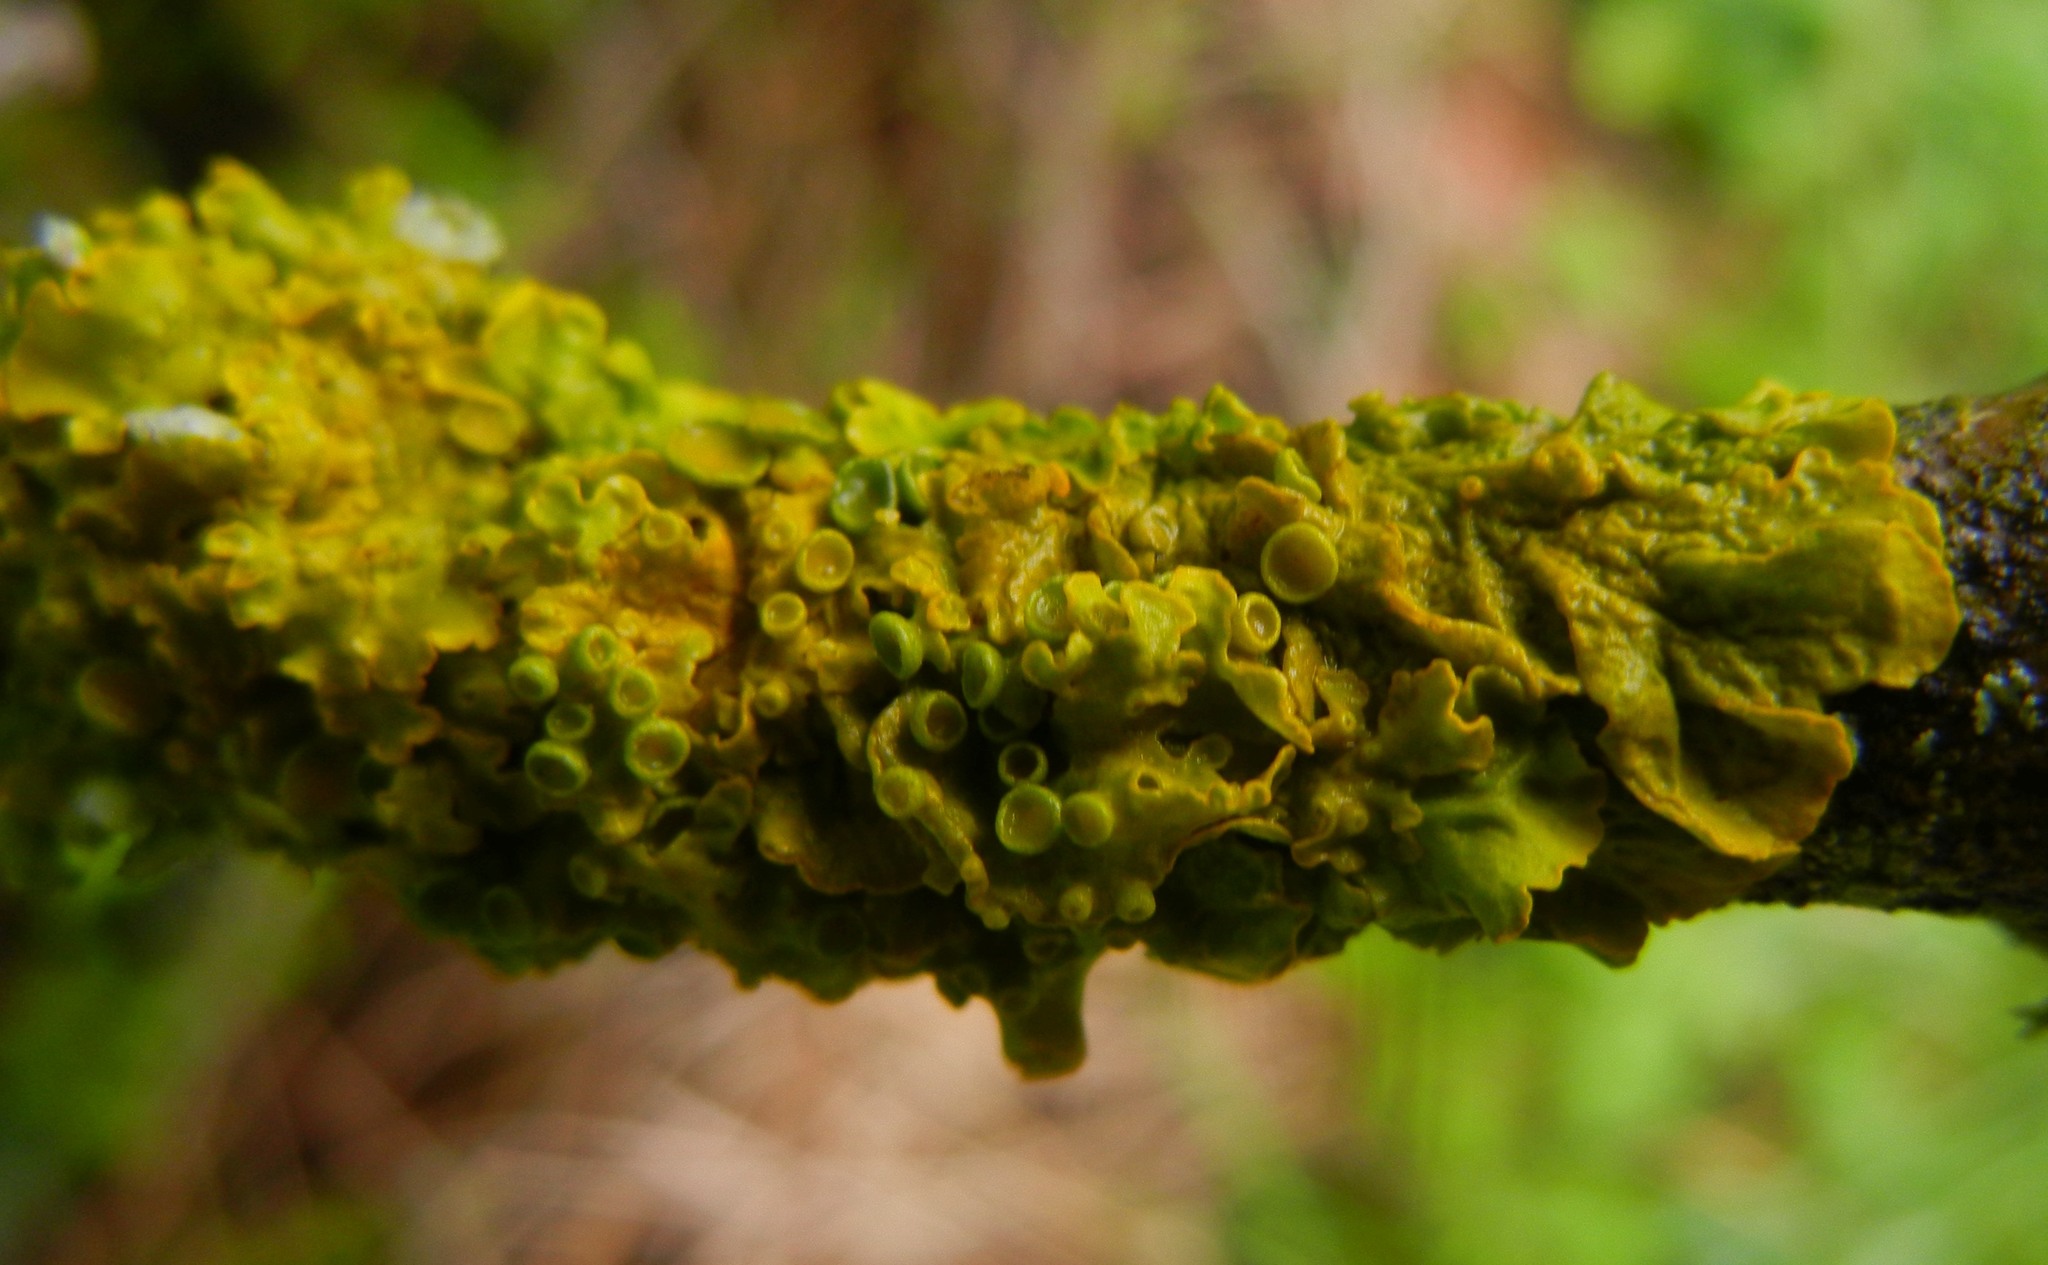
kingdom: Fungi
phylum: Ascomycota
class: Lecanoromycetes
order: Teloschistales
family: Teloschistaceae
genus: Xanthoria
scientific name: Xanthoria parietina
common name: Common orange lichen
